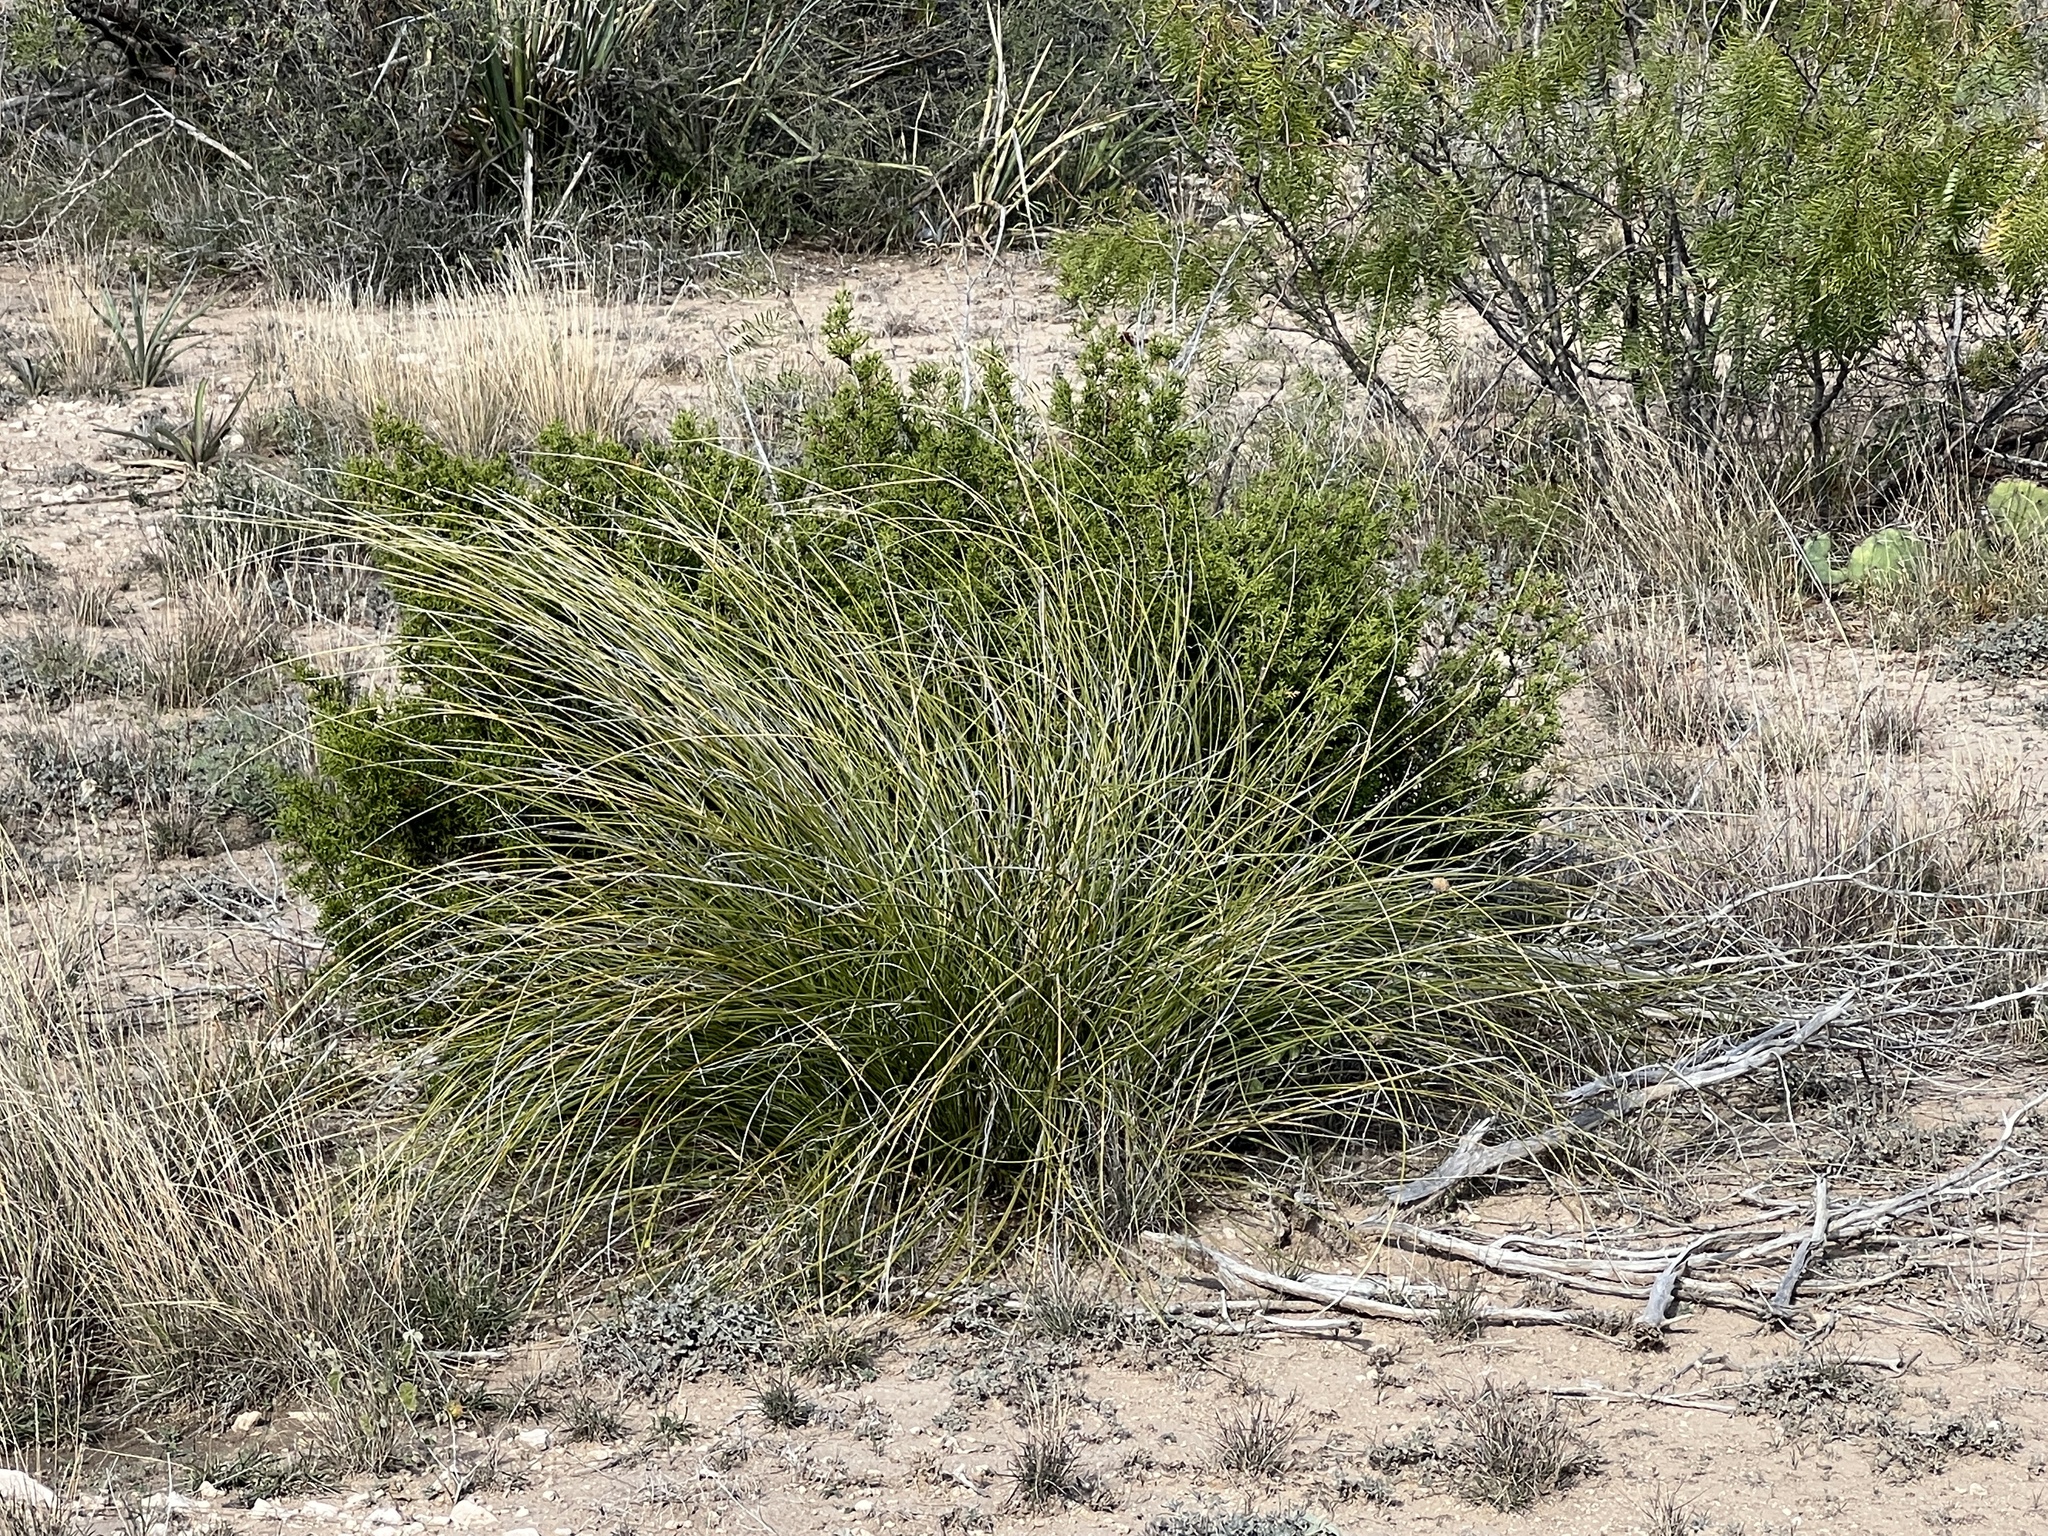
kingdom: Plantae
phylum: Tracheophyta
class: Liliopsida
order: Asparagales
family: Asparagaceae
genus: Nolina
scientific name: Nolina texana
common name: Texas sacahuiste
